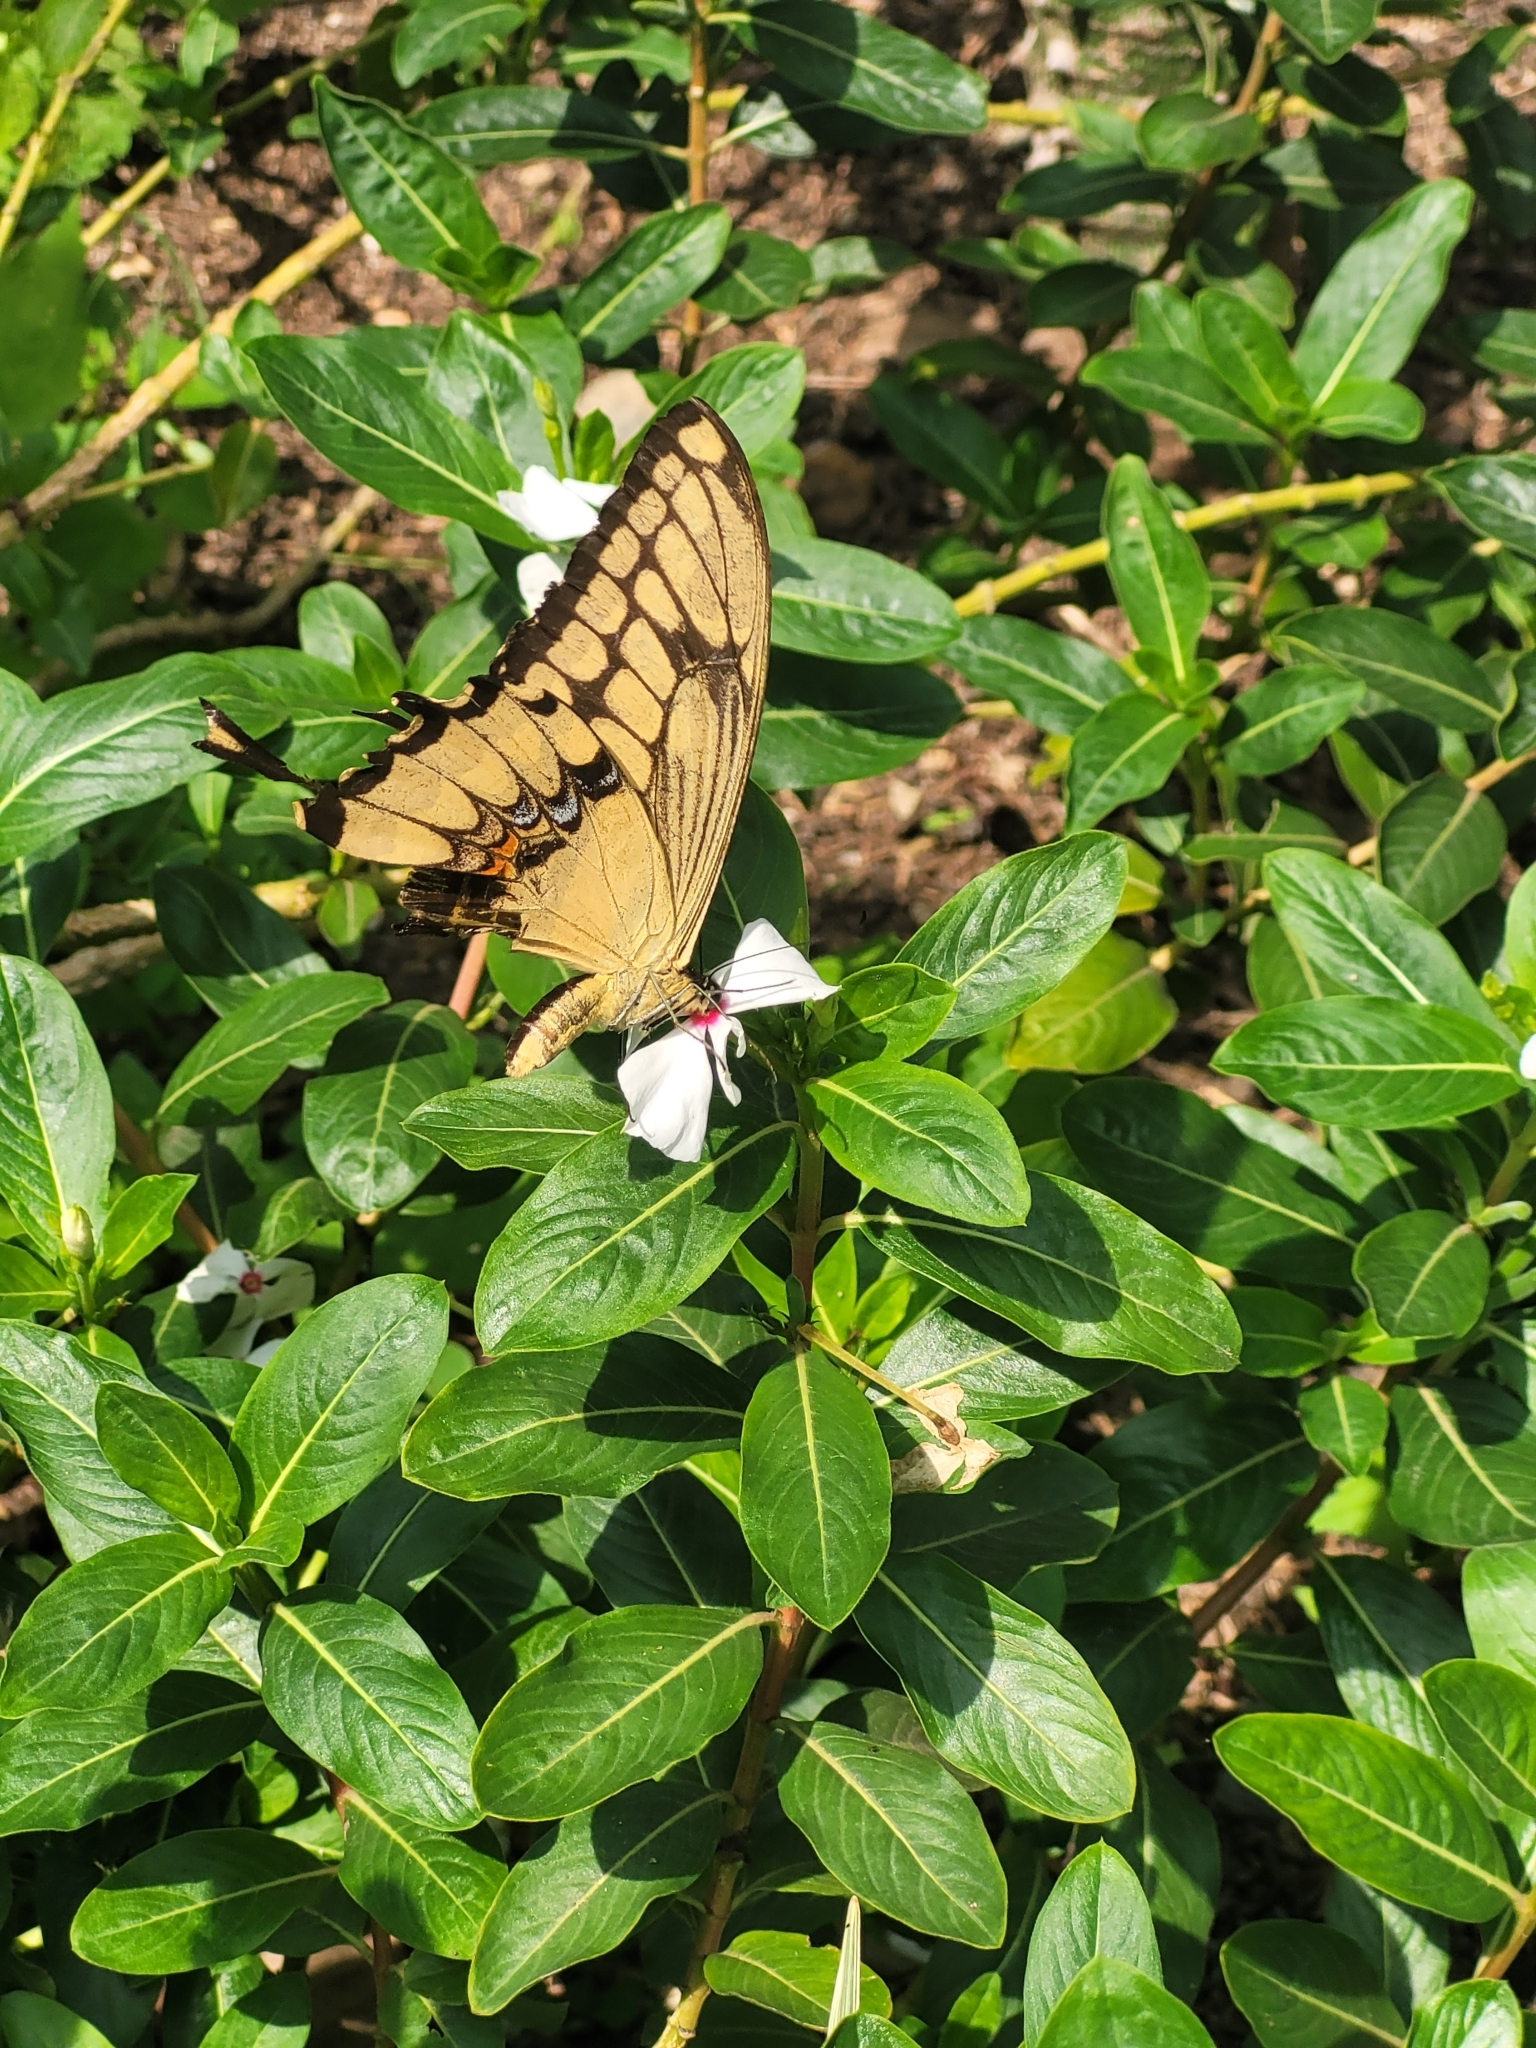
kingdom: Animalia
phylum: Arthropoda
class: Insecta
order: Lepidoptera
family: Papilionidae
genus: Papilio
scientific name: Papilio thoas
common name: King swallowtail
